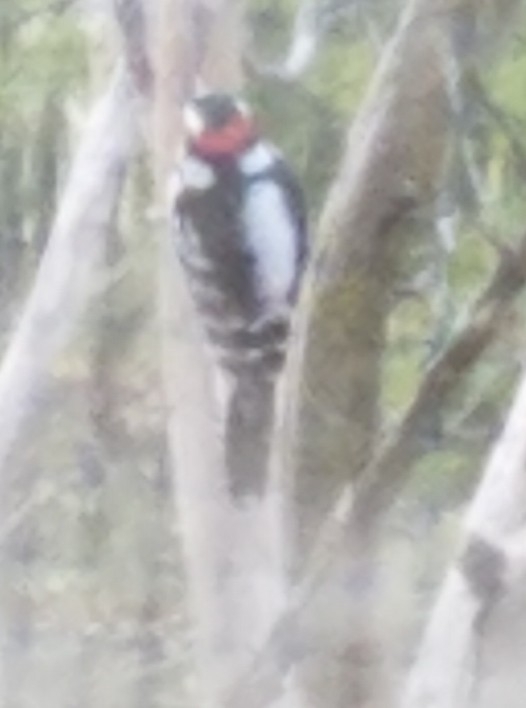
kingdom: Animalia
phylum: Chordata
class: Aves
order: Piciformes
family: Picidae
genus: Dryobates
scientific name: Dryobates pubescens
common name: Downy woodpecker
